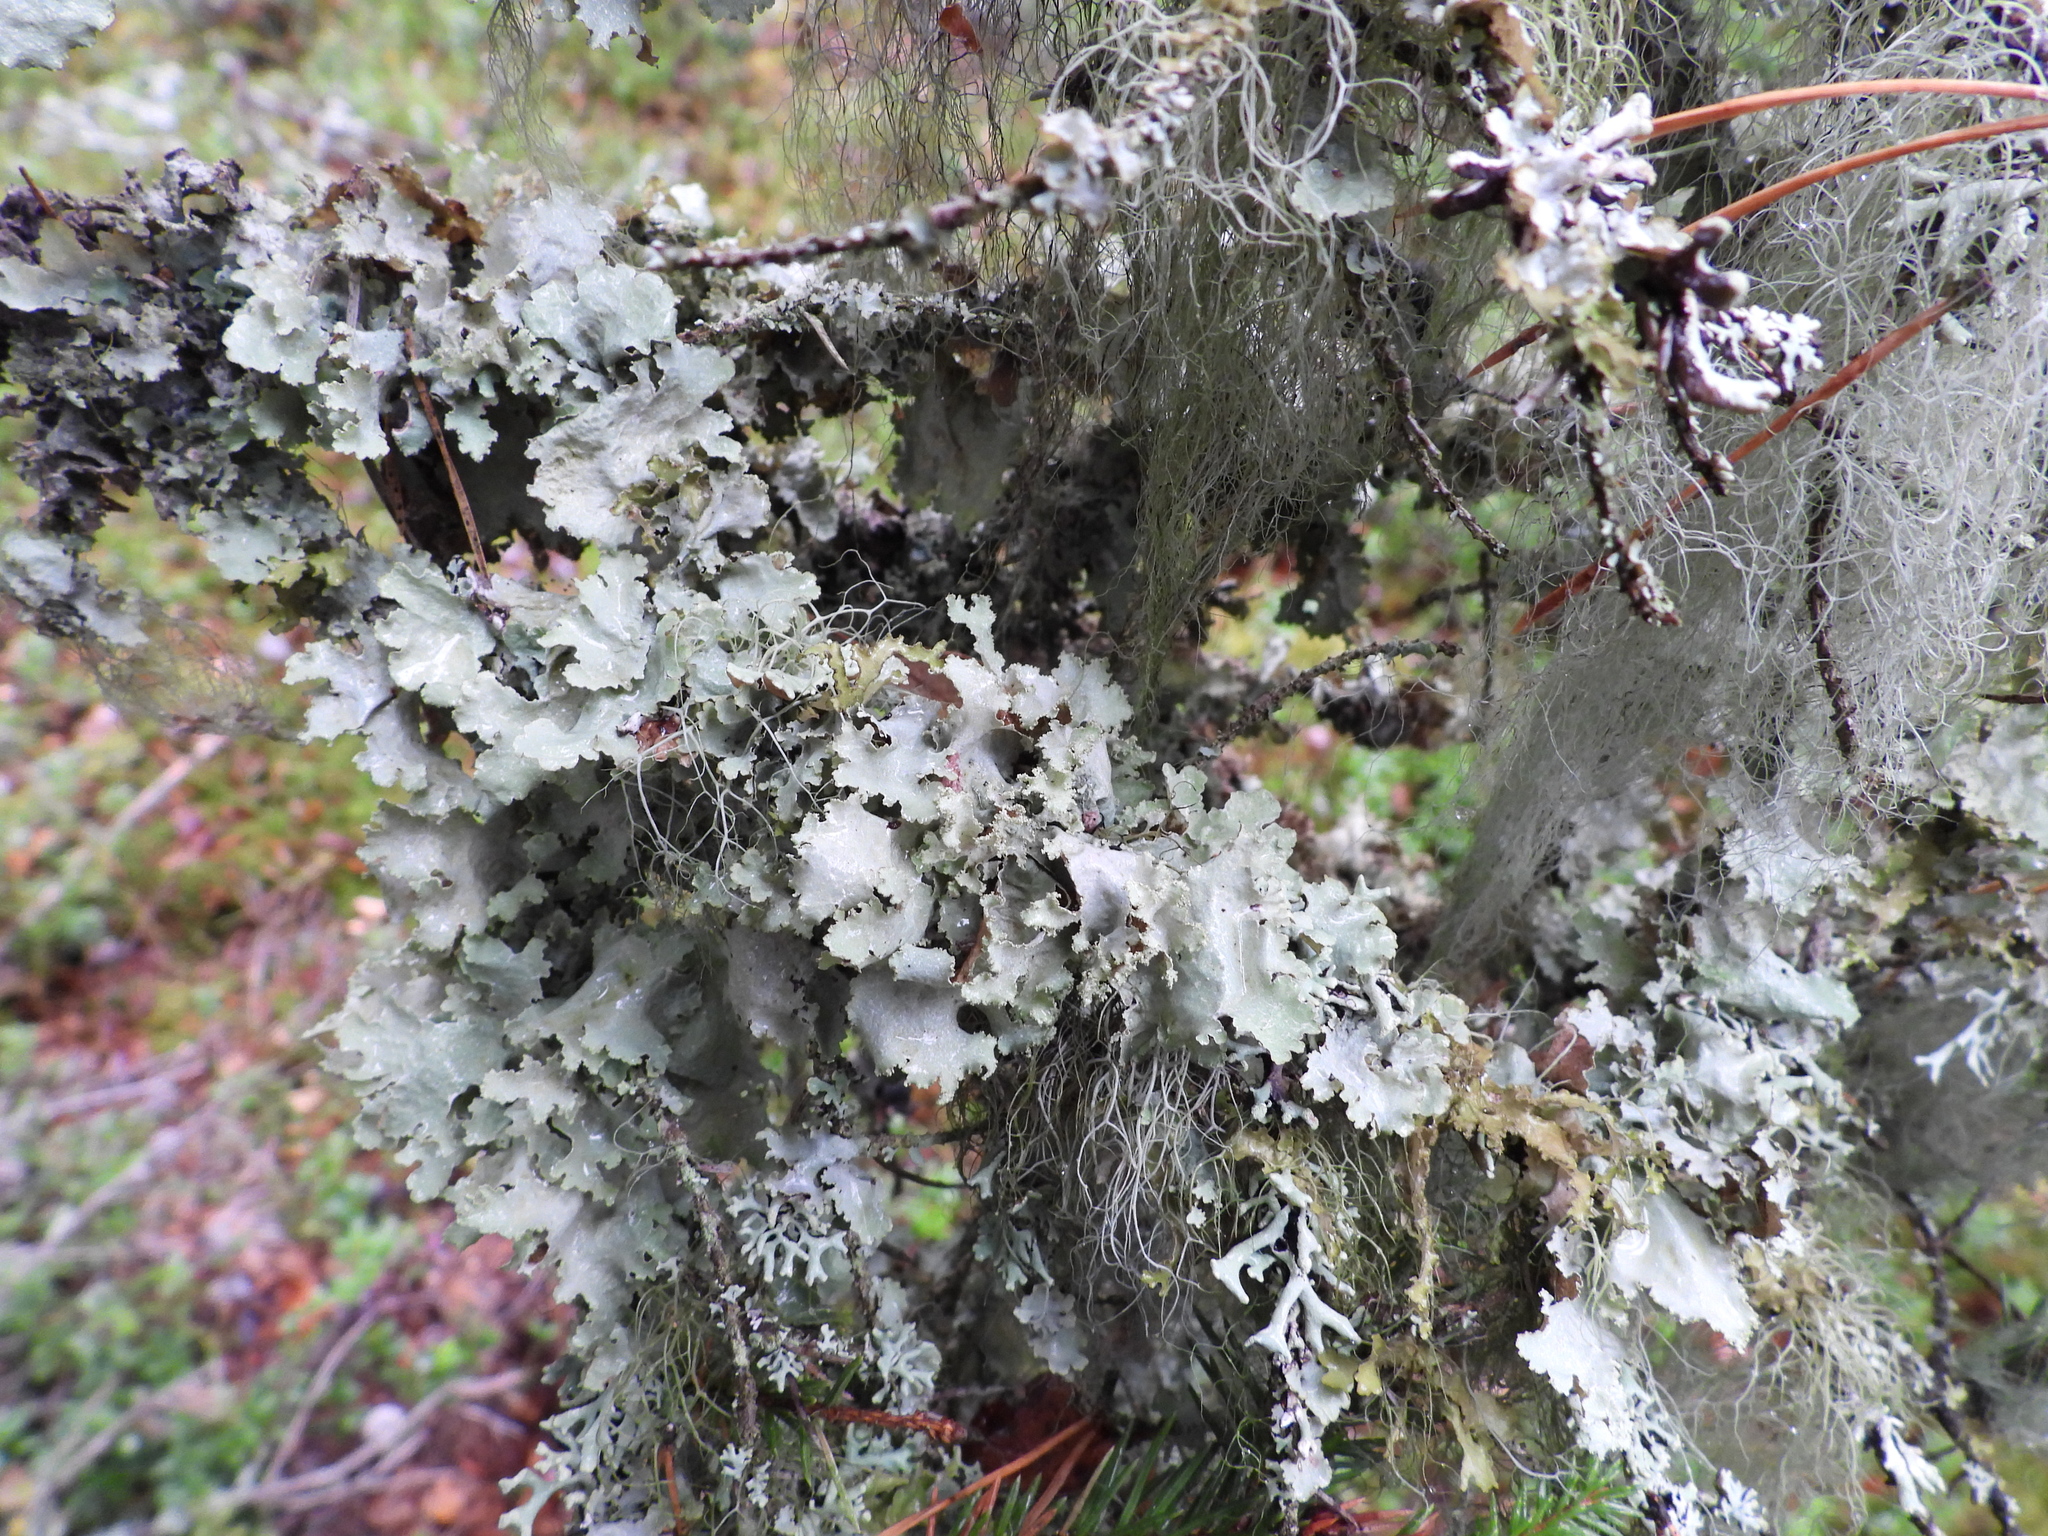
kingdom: Fungi
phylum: Ascomycota
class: Lecanoromycetes
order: Lecanorales
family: Parmeliaceae
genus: Platismatia
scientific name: Platismatia glauca
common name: Varied rag lichen
